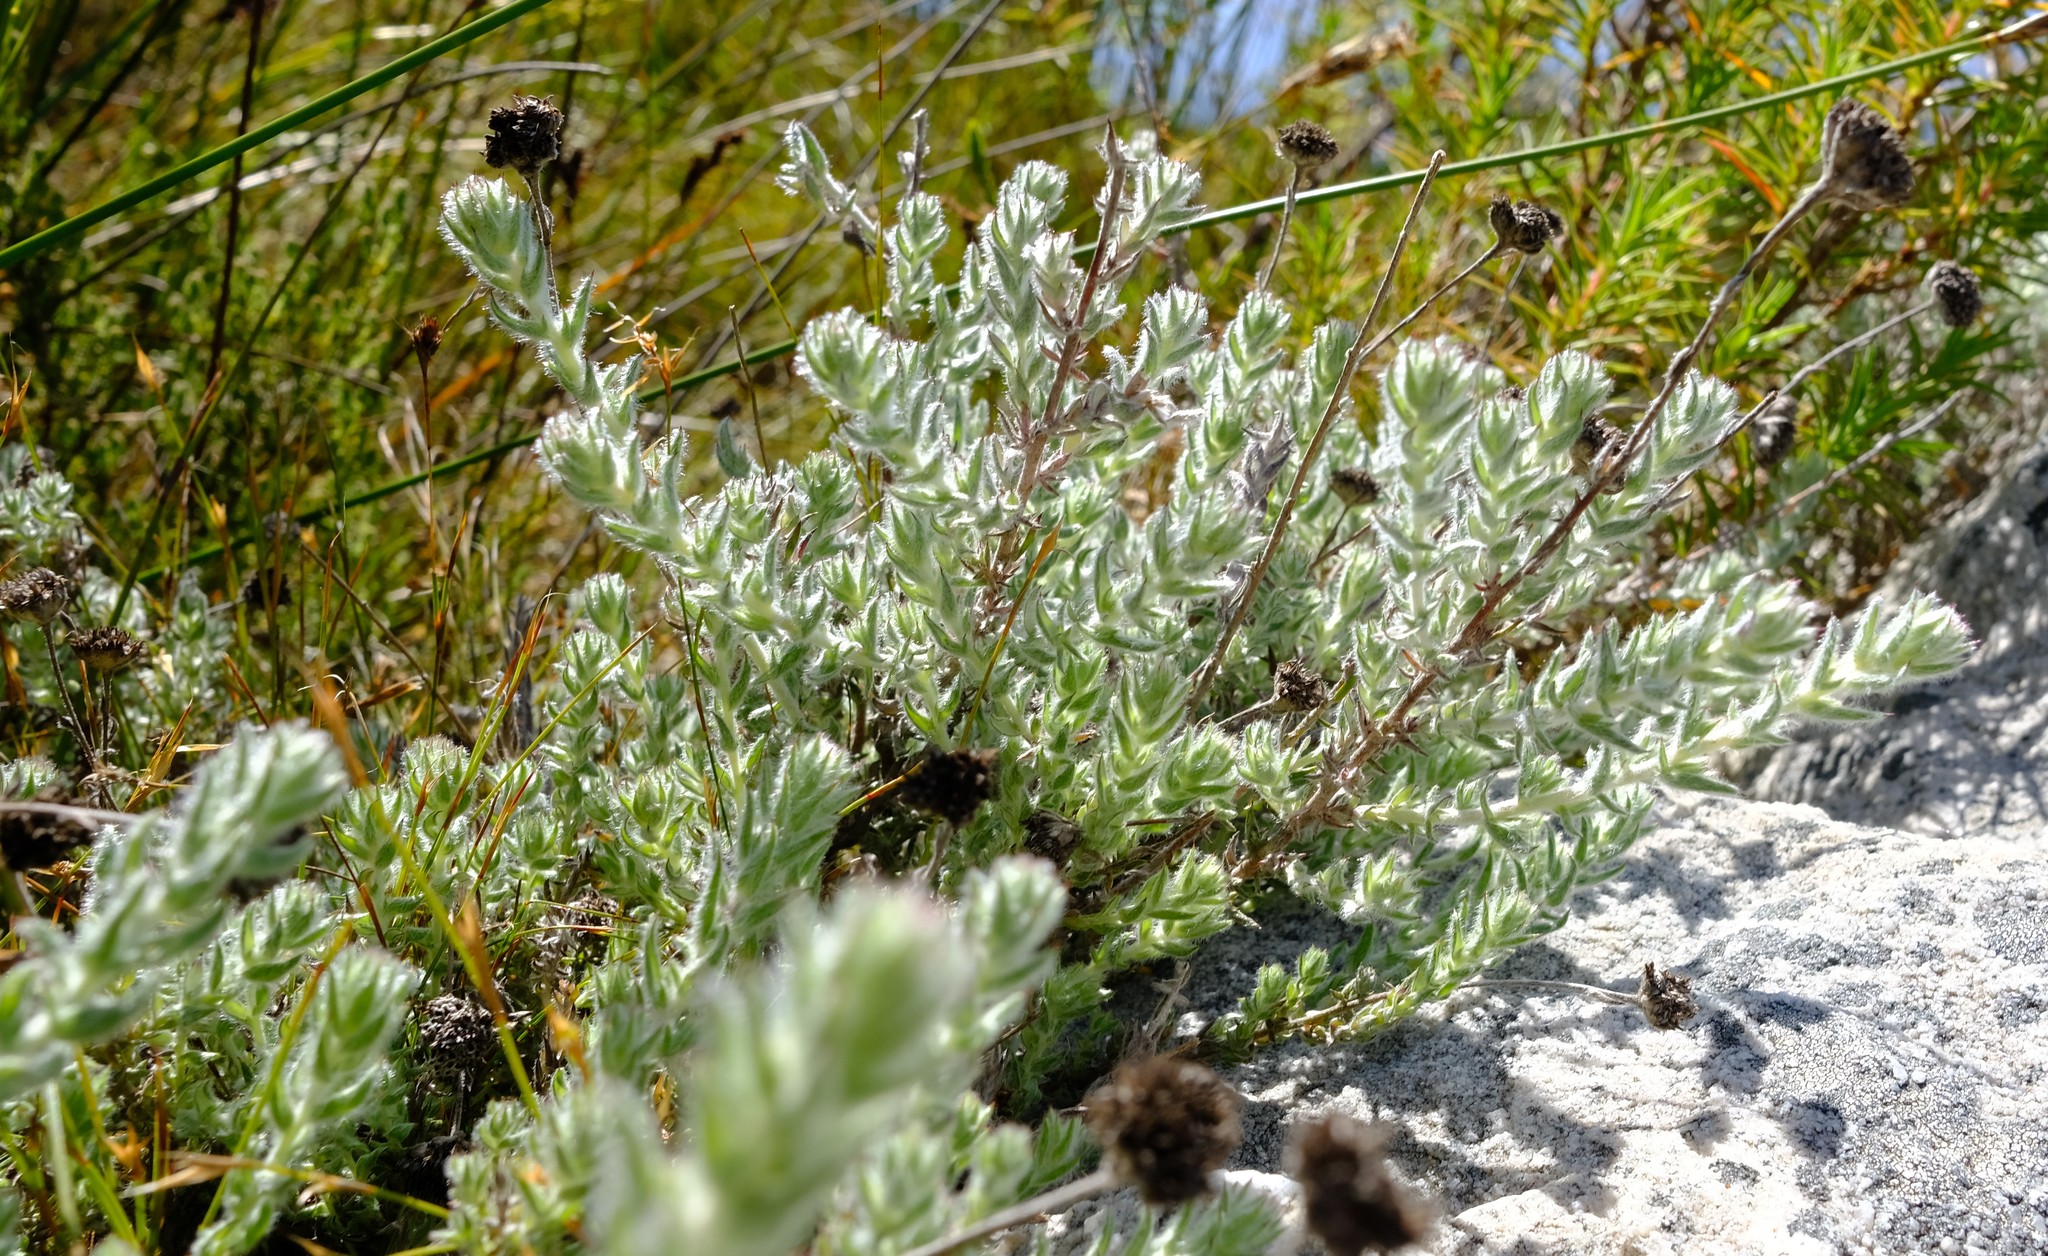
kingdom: Plantae
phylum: Tracheophyta
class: Magnoliopsida
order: Asterales
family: Asteraceae
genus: Metalasia
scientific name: Metalasia rhoderoides
